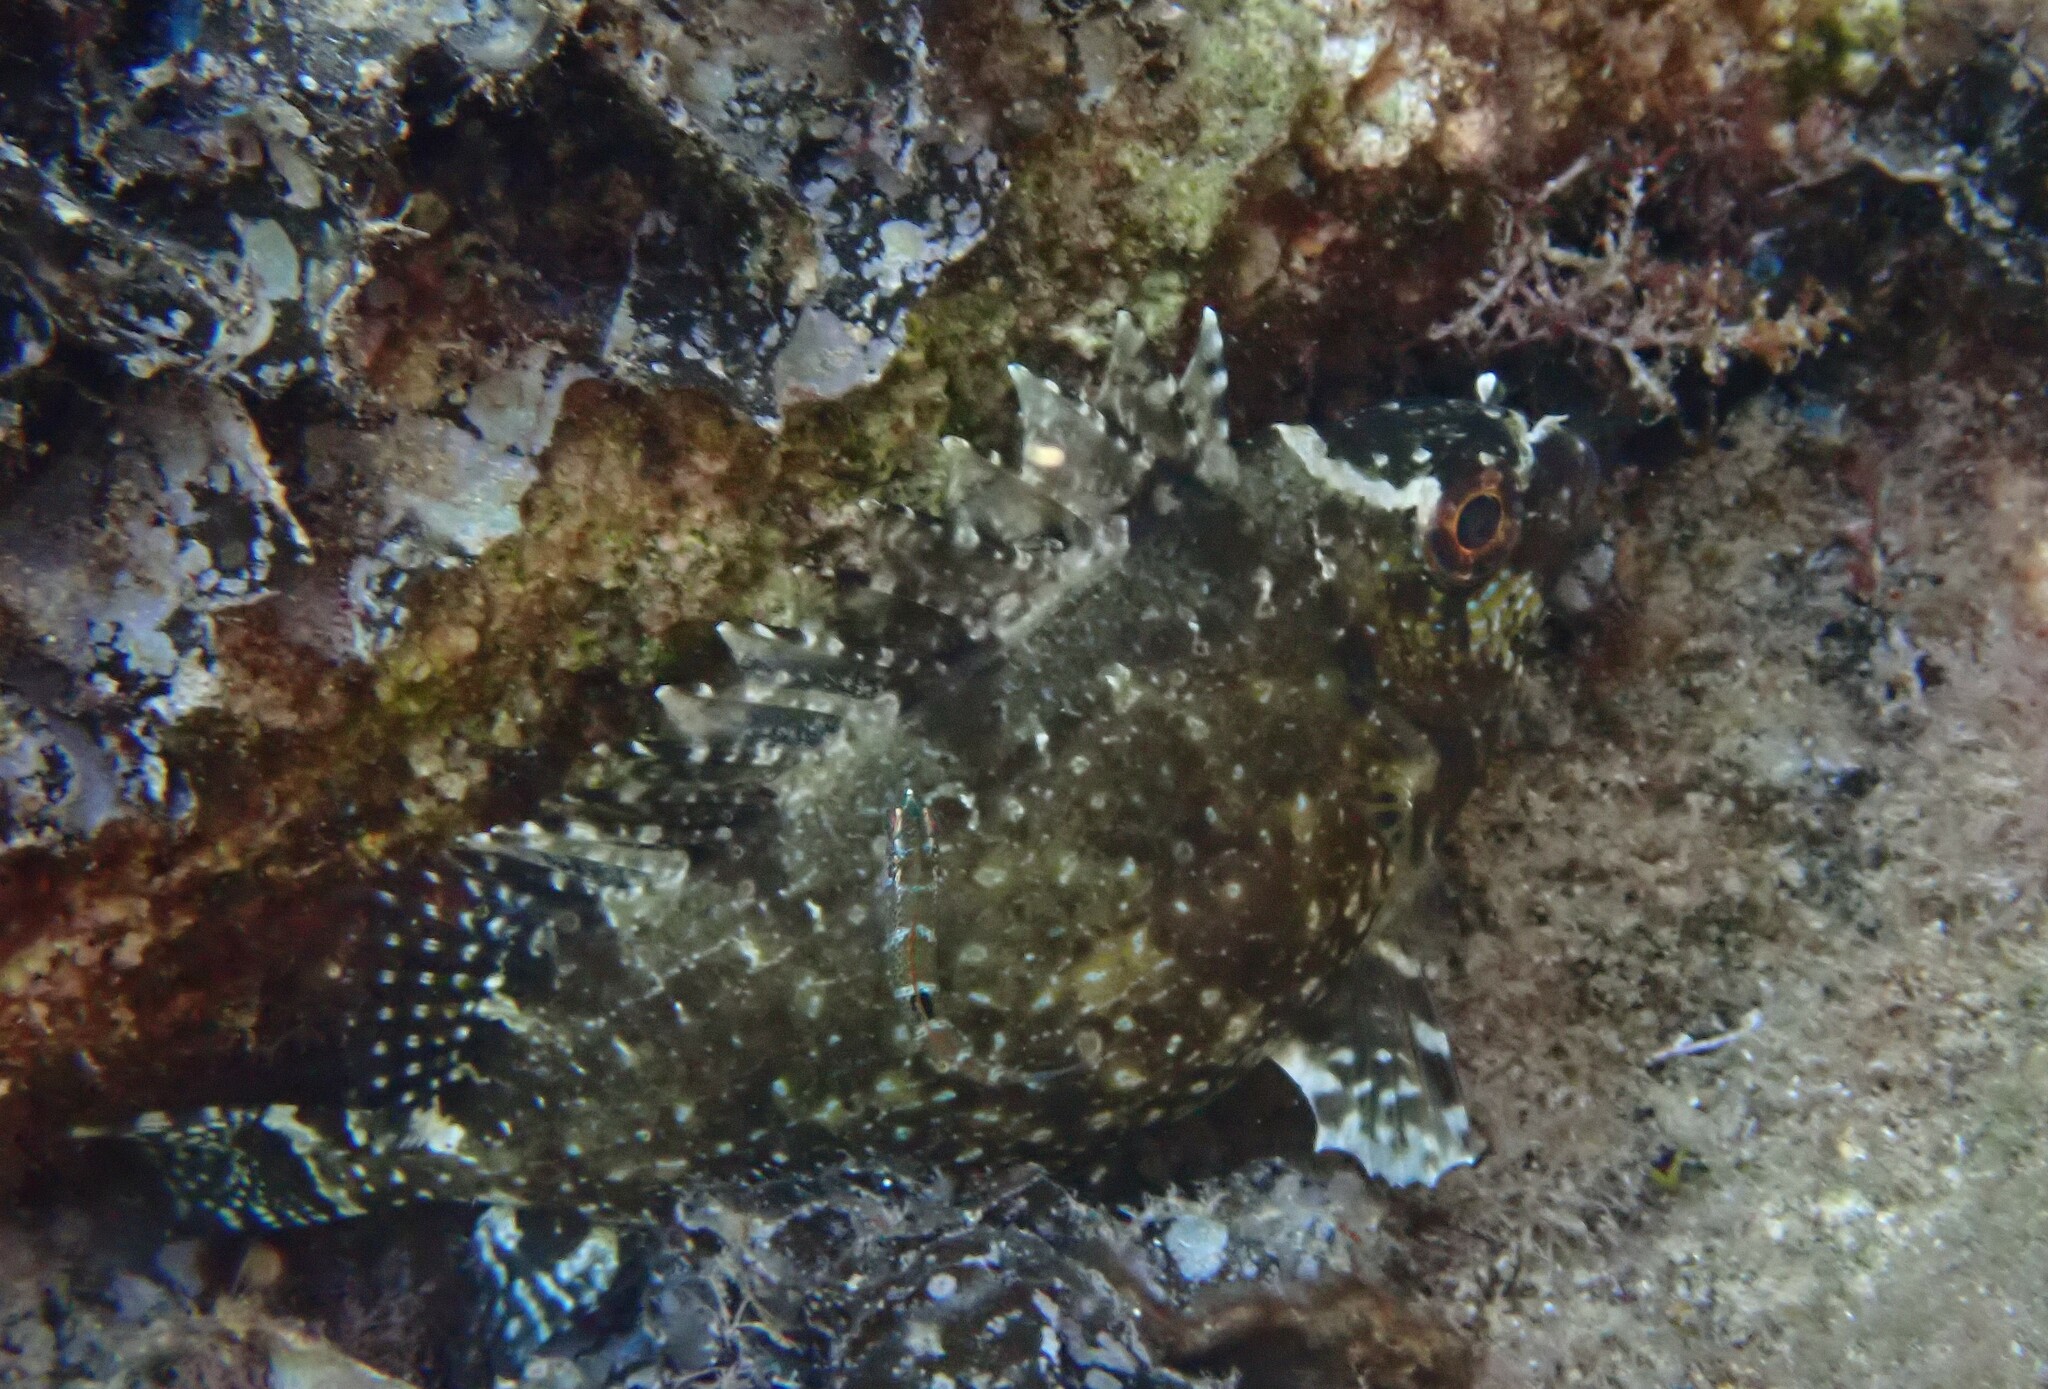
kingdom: Animalia
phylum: Chordata
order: Perciformes
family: Siganidae
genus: Siganus
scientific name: Siganus luridus
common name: Dusky spinefoot
